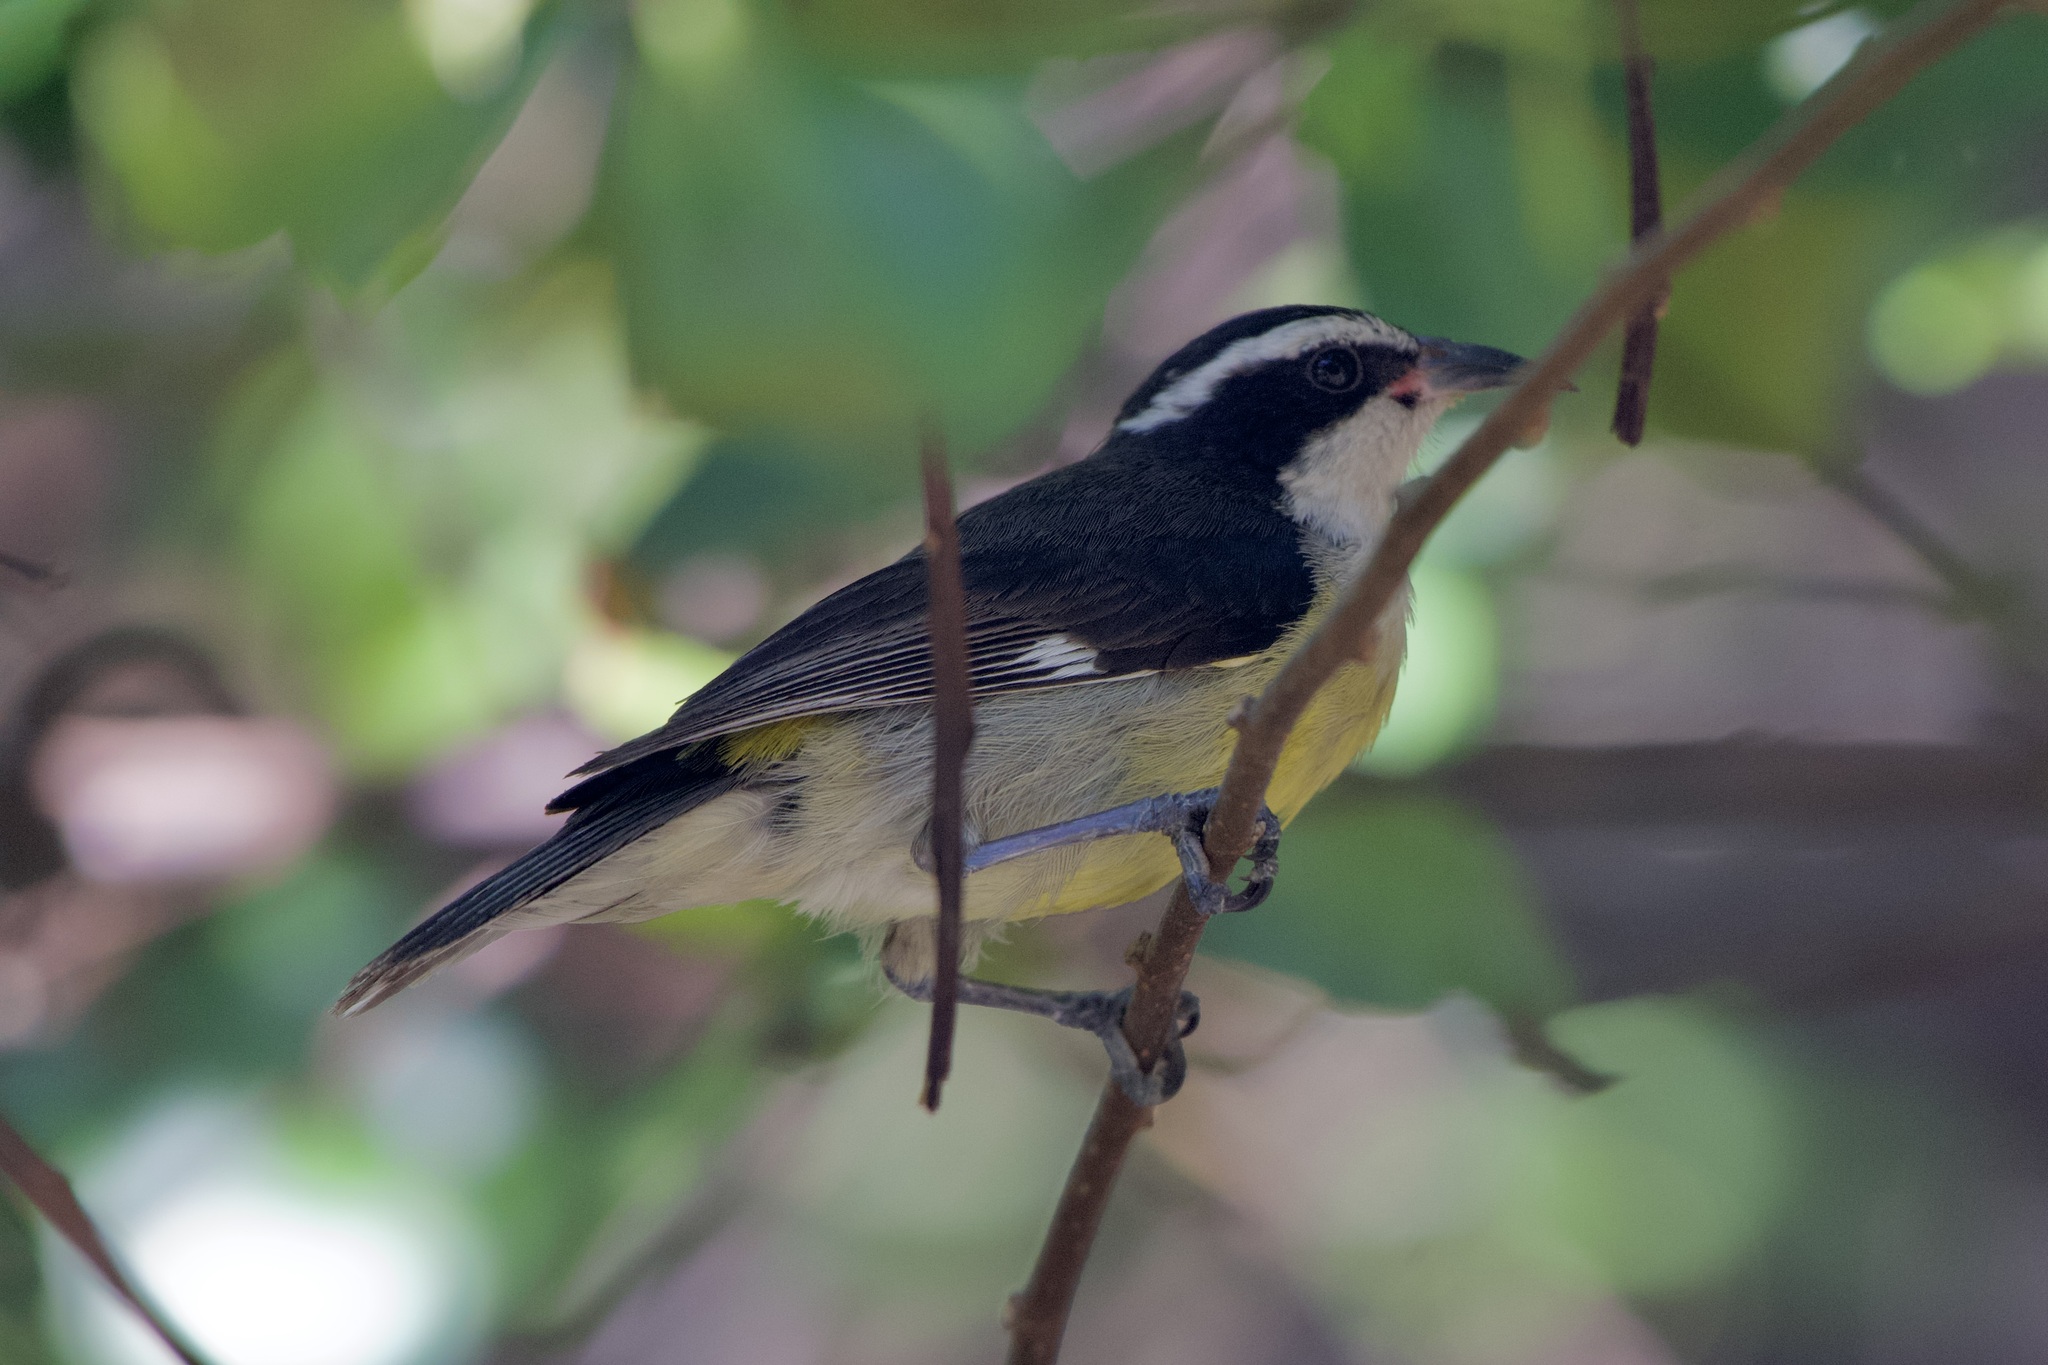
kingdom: Animalia
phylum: Chordata
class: Aves
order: Passeriformes
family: Thraupidae
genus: Coereba
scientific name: Coereba flaveola
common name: Bananaquit
